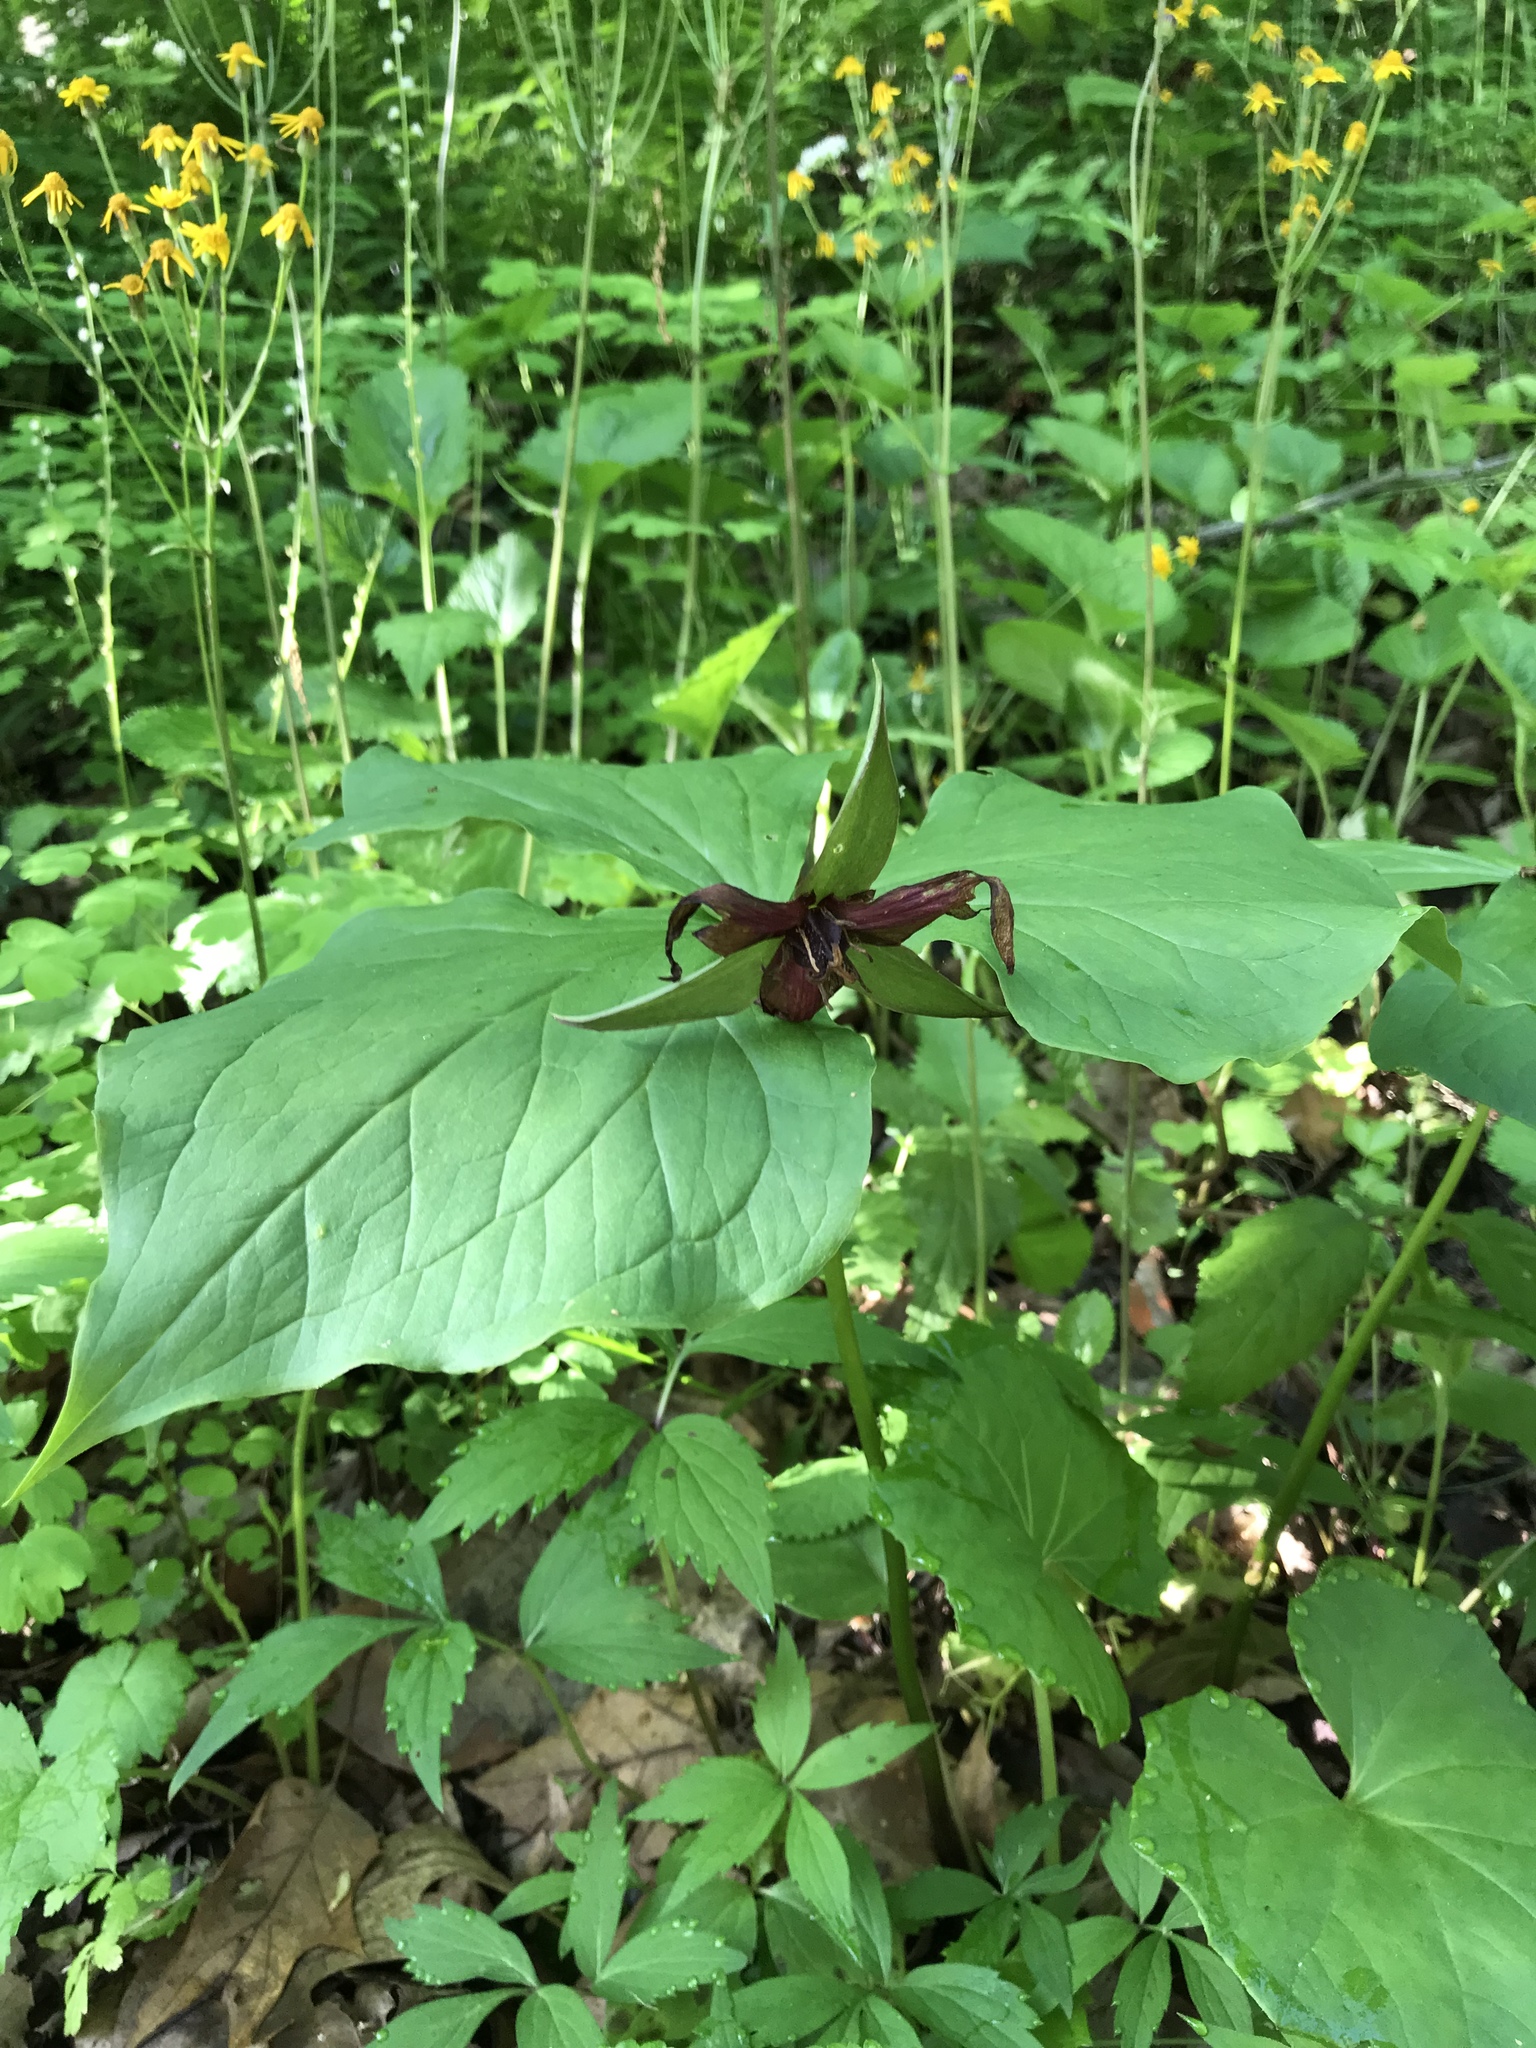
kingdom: Plantae
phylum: Tracheophyta
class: Liliopsida
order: Liliales
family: Melanthiaceae
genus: Trillium
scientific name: Trillium erectum
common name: Purple trillium
